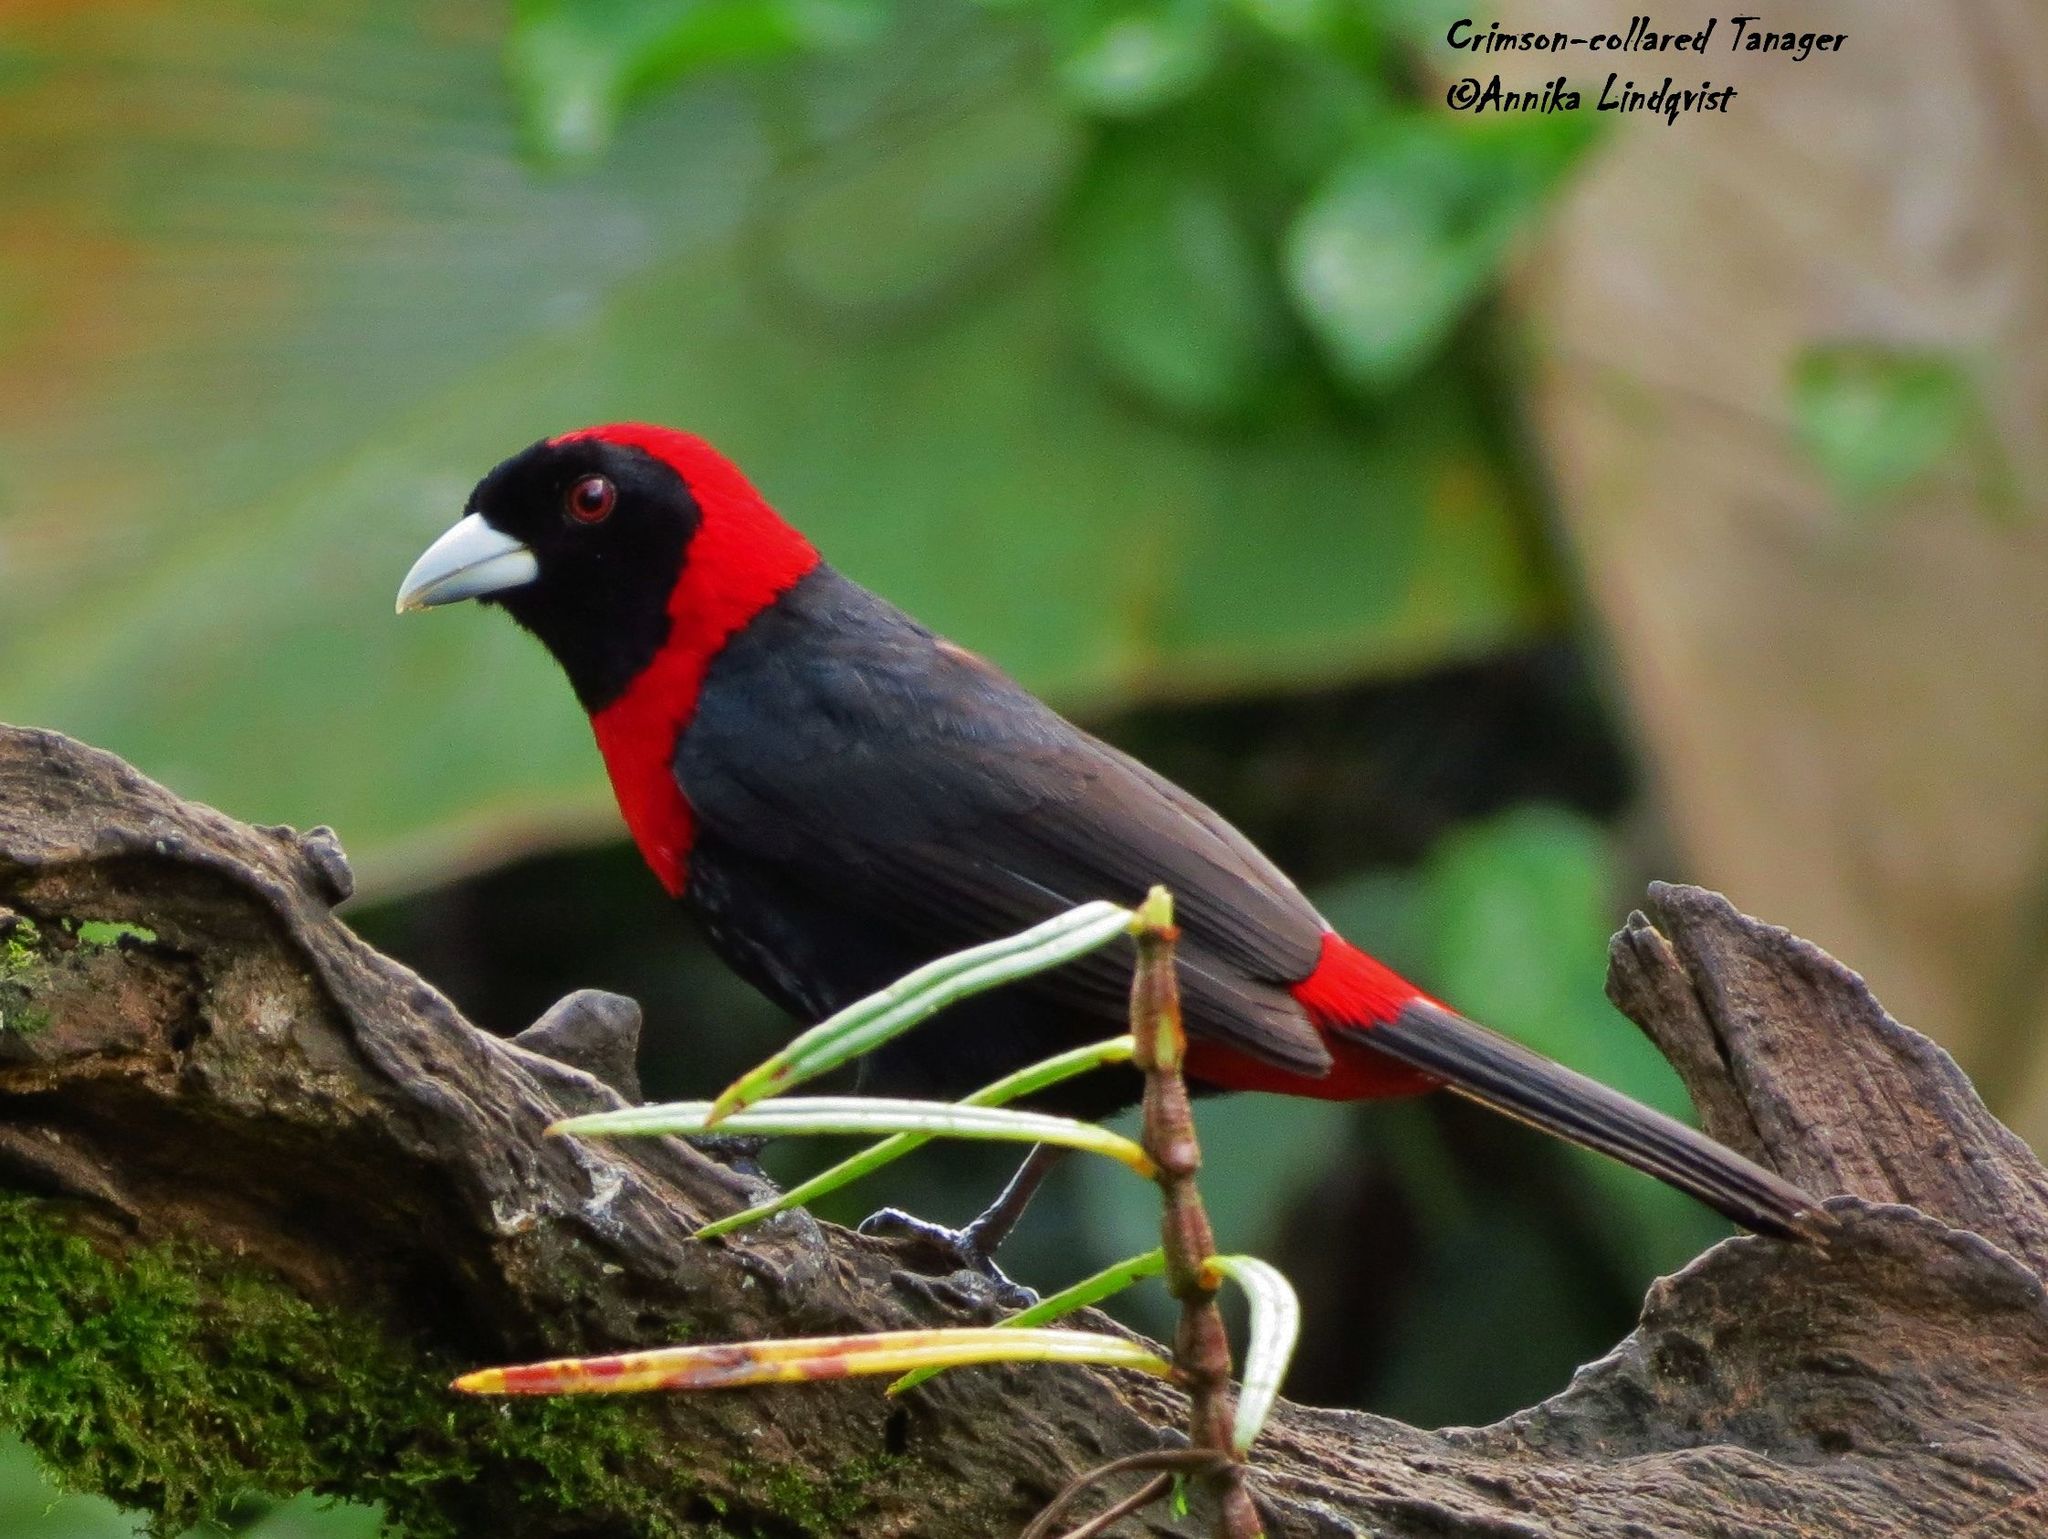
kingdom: Animalia
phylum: Chordata
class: Aves
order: Passeriformes
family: Thraupidae
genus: Ramphocelus
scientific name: Ramphocelus sanguinolentus
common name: Crimson-collared tanager
